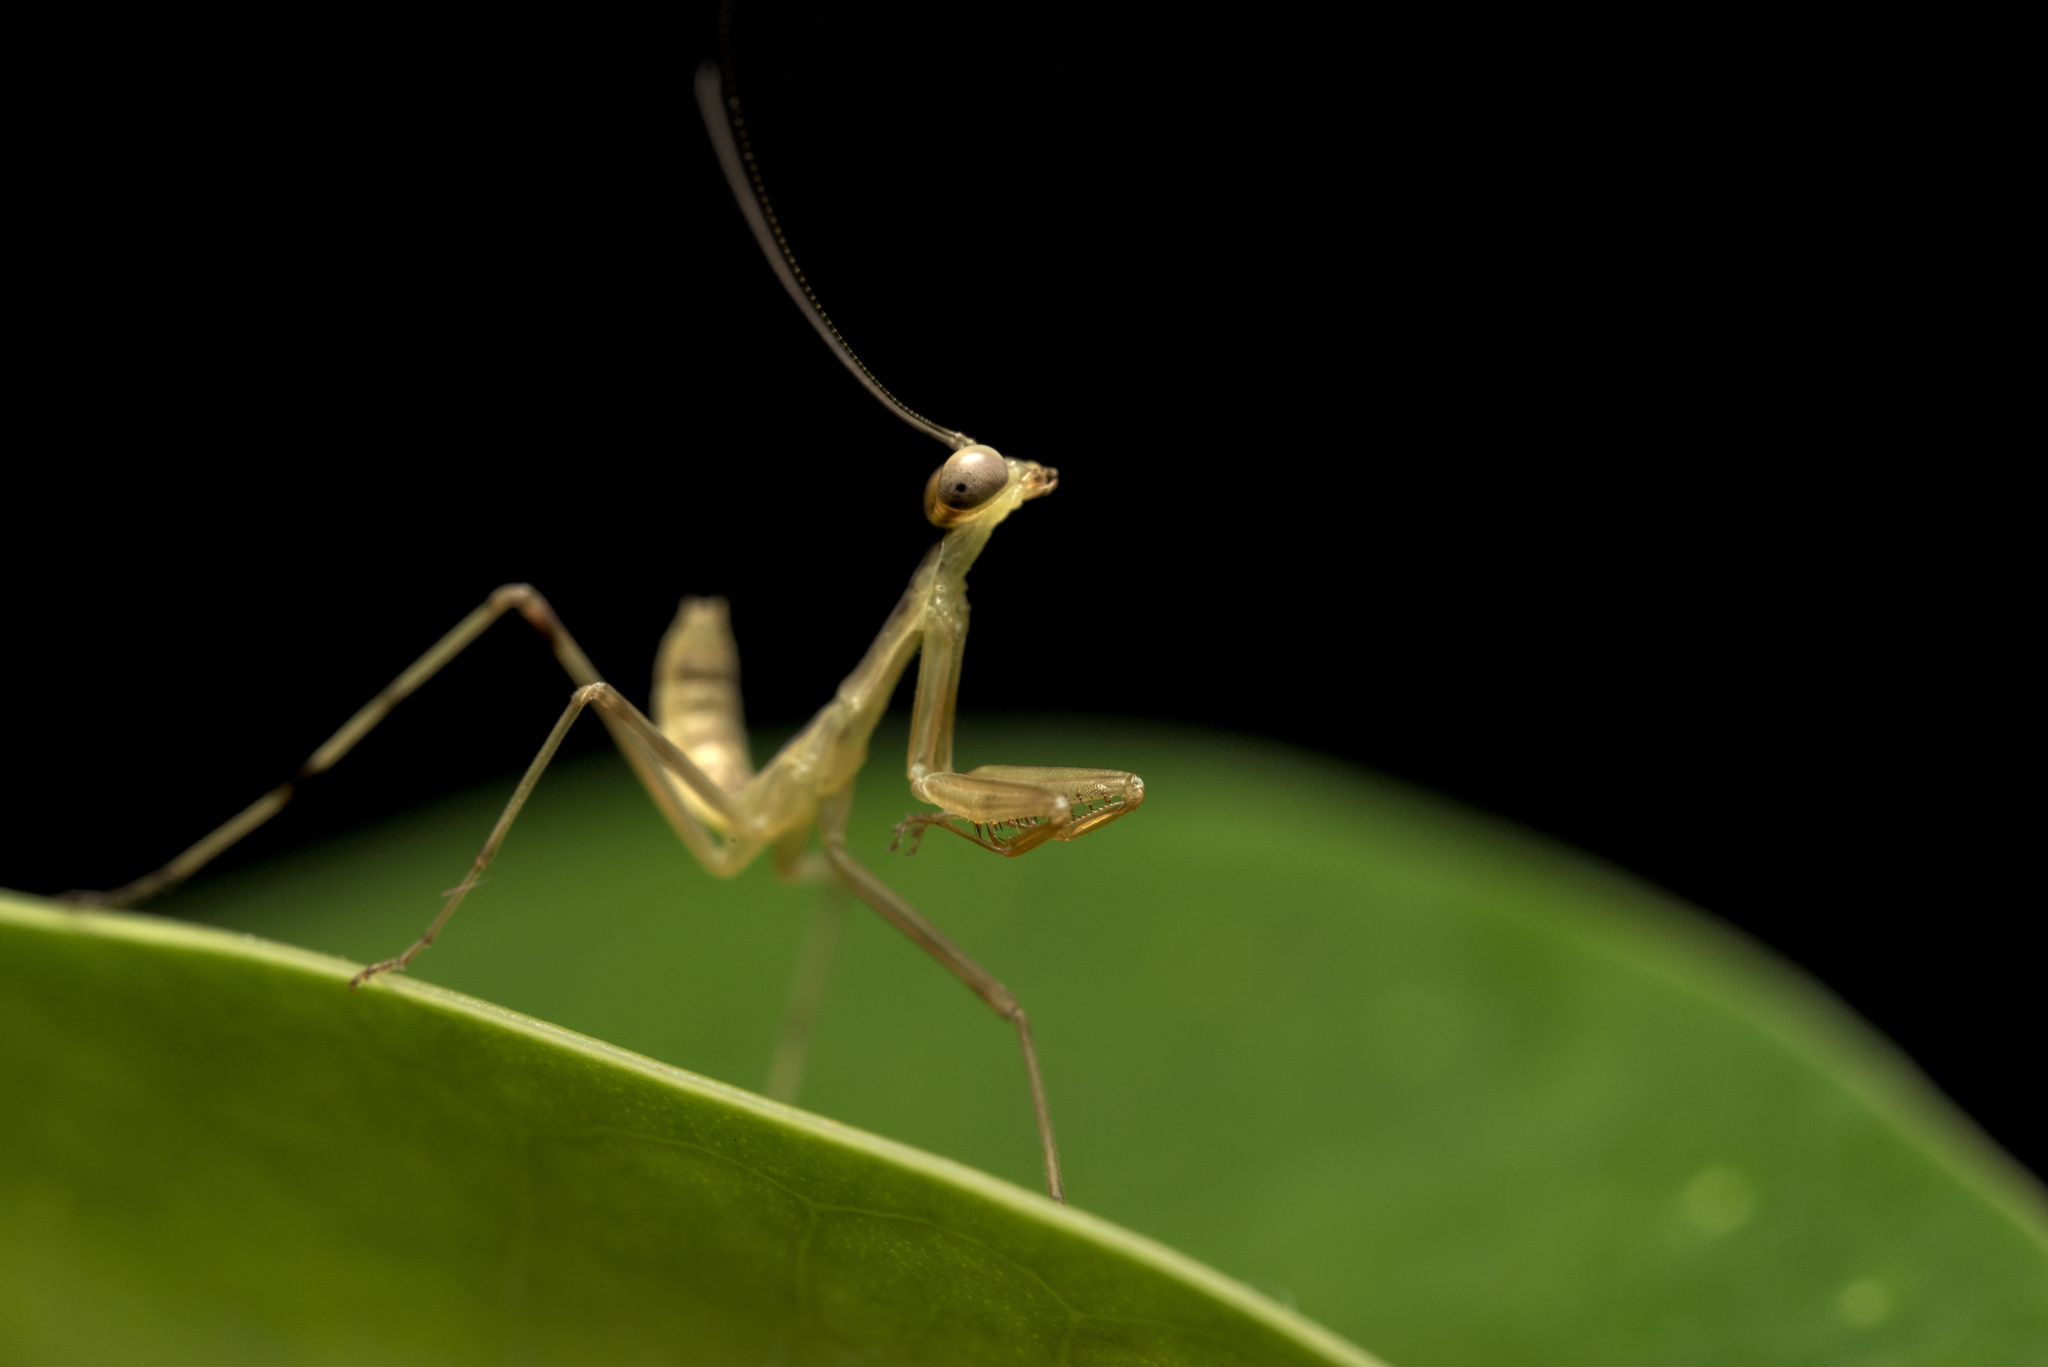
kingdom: Animalia
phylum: Arthropoda
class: Insecta
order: Mantodea
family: Mantidae
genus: Hierodula
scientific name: Hierodula patellifera
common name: Asian mantis
